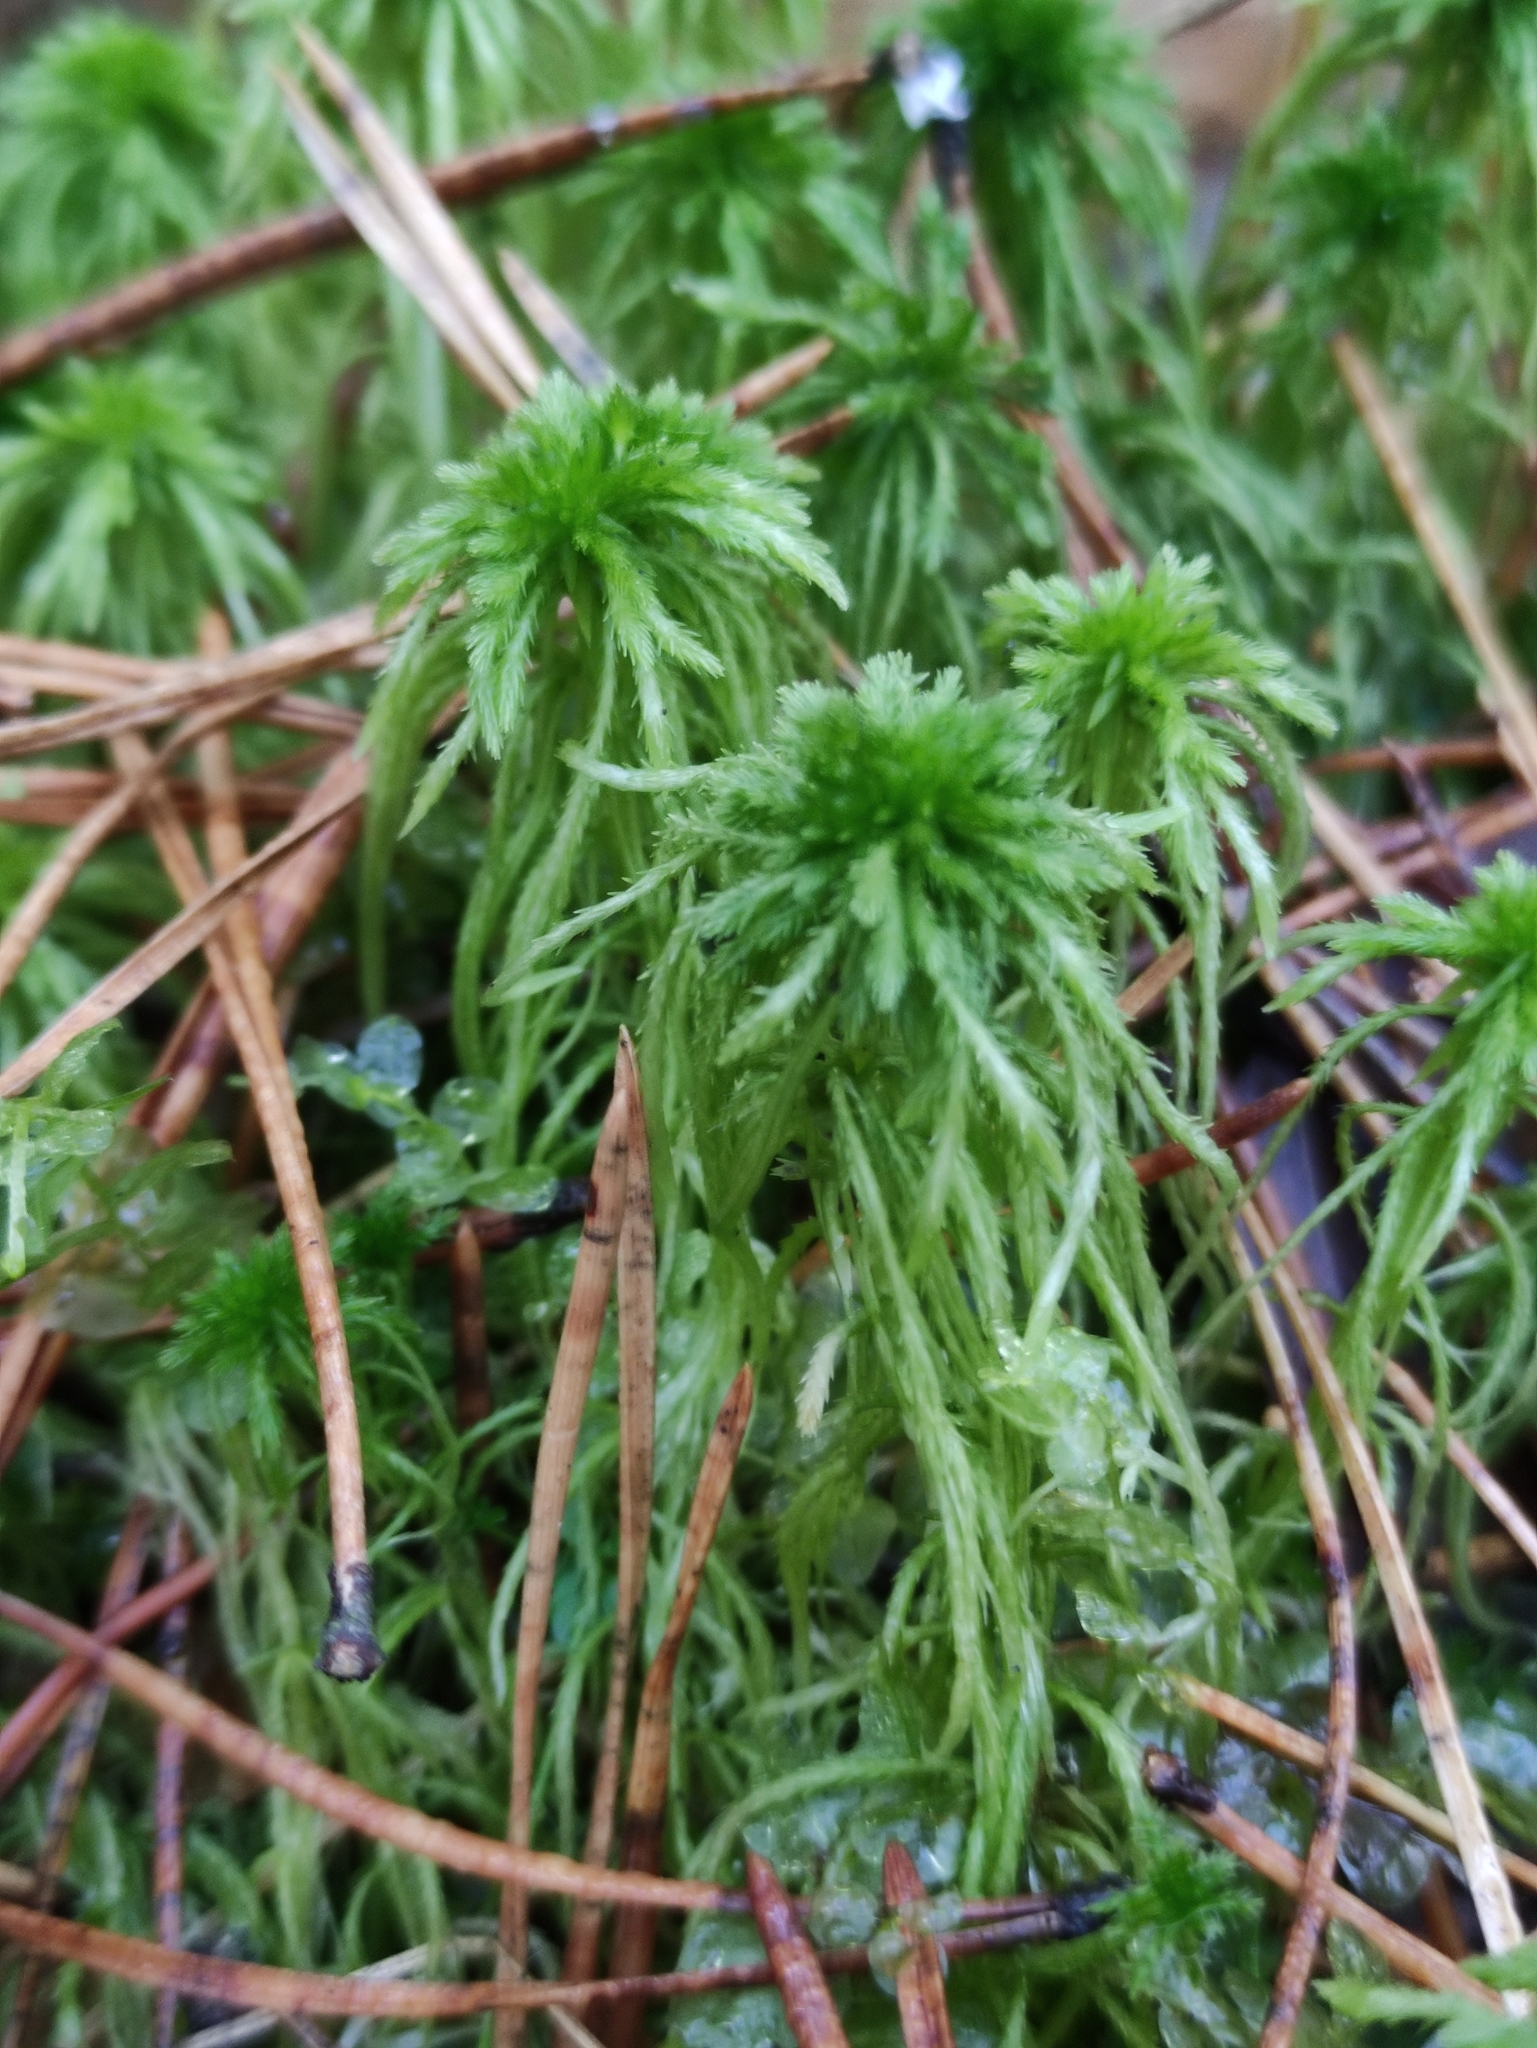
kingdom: Plantae
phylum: Bryophyta
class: Sphagnopsida
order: Sphagnales
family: Sphagnaceae
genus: Sphagnum
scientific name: Sphagnum girgensohnii
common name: Girgensohn's peat moss
